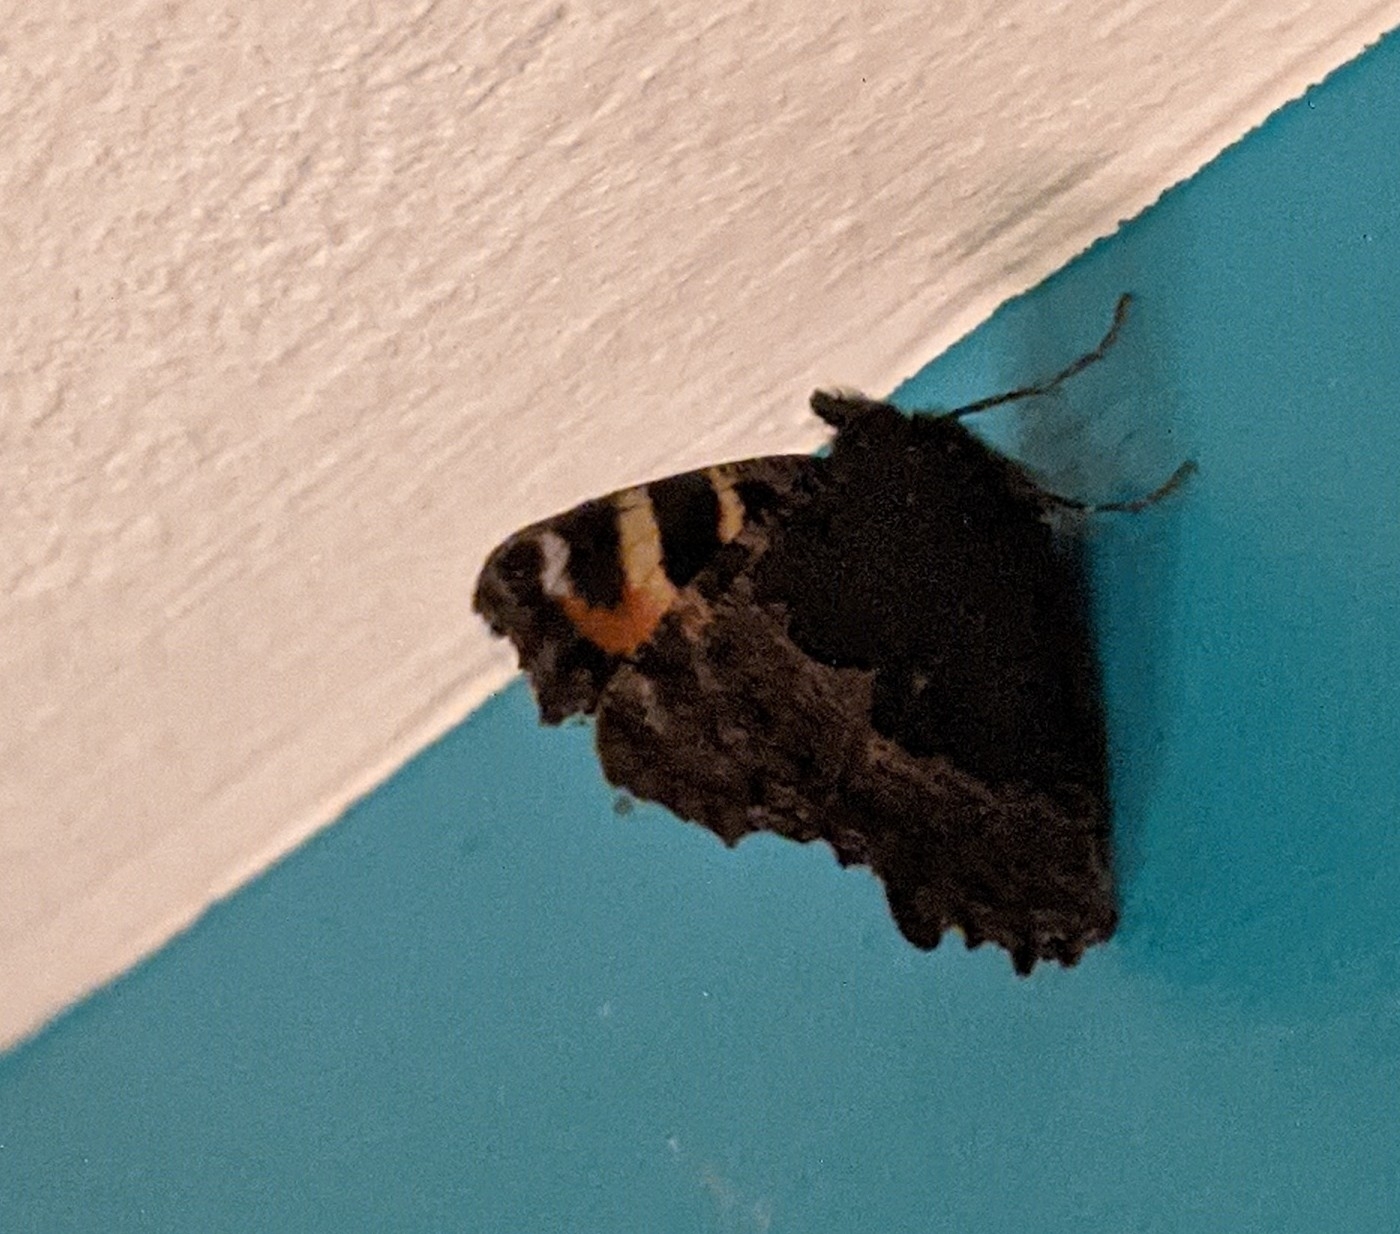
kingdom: Animalia
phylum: Arthropoda
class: Insecta
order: Lepidoptera
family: Nymphalidae
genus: Aglais
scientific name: Aglais urticae
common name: Small tortoiseshell
